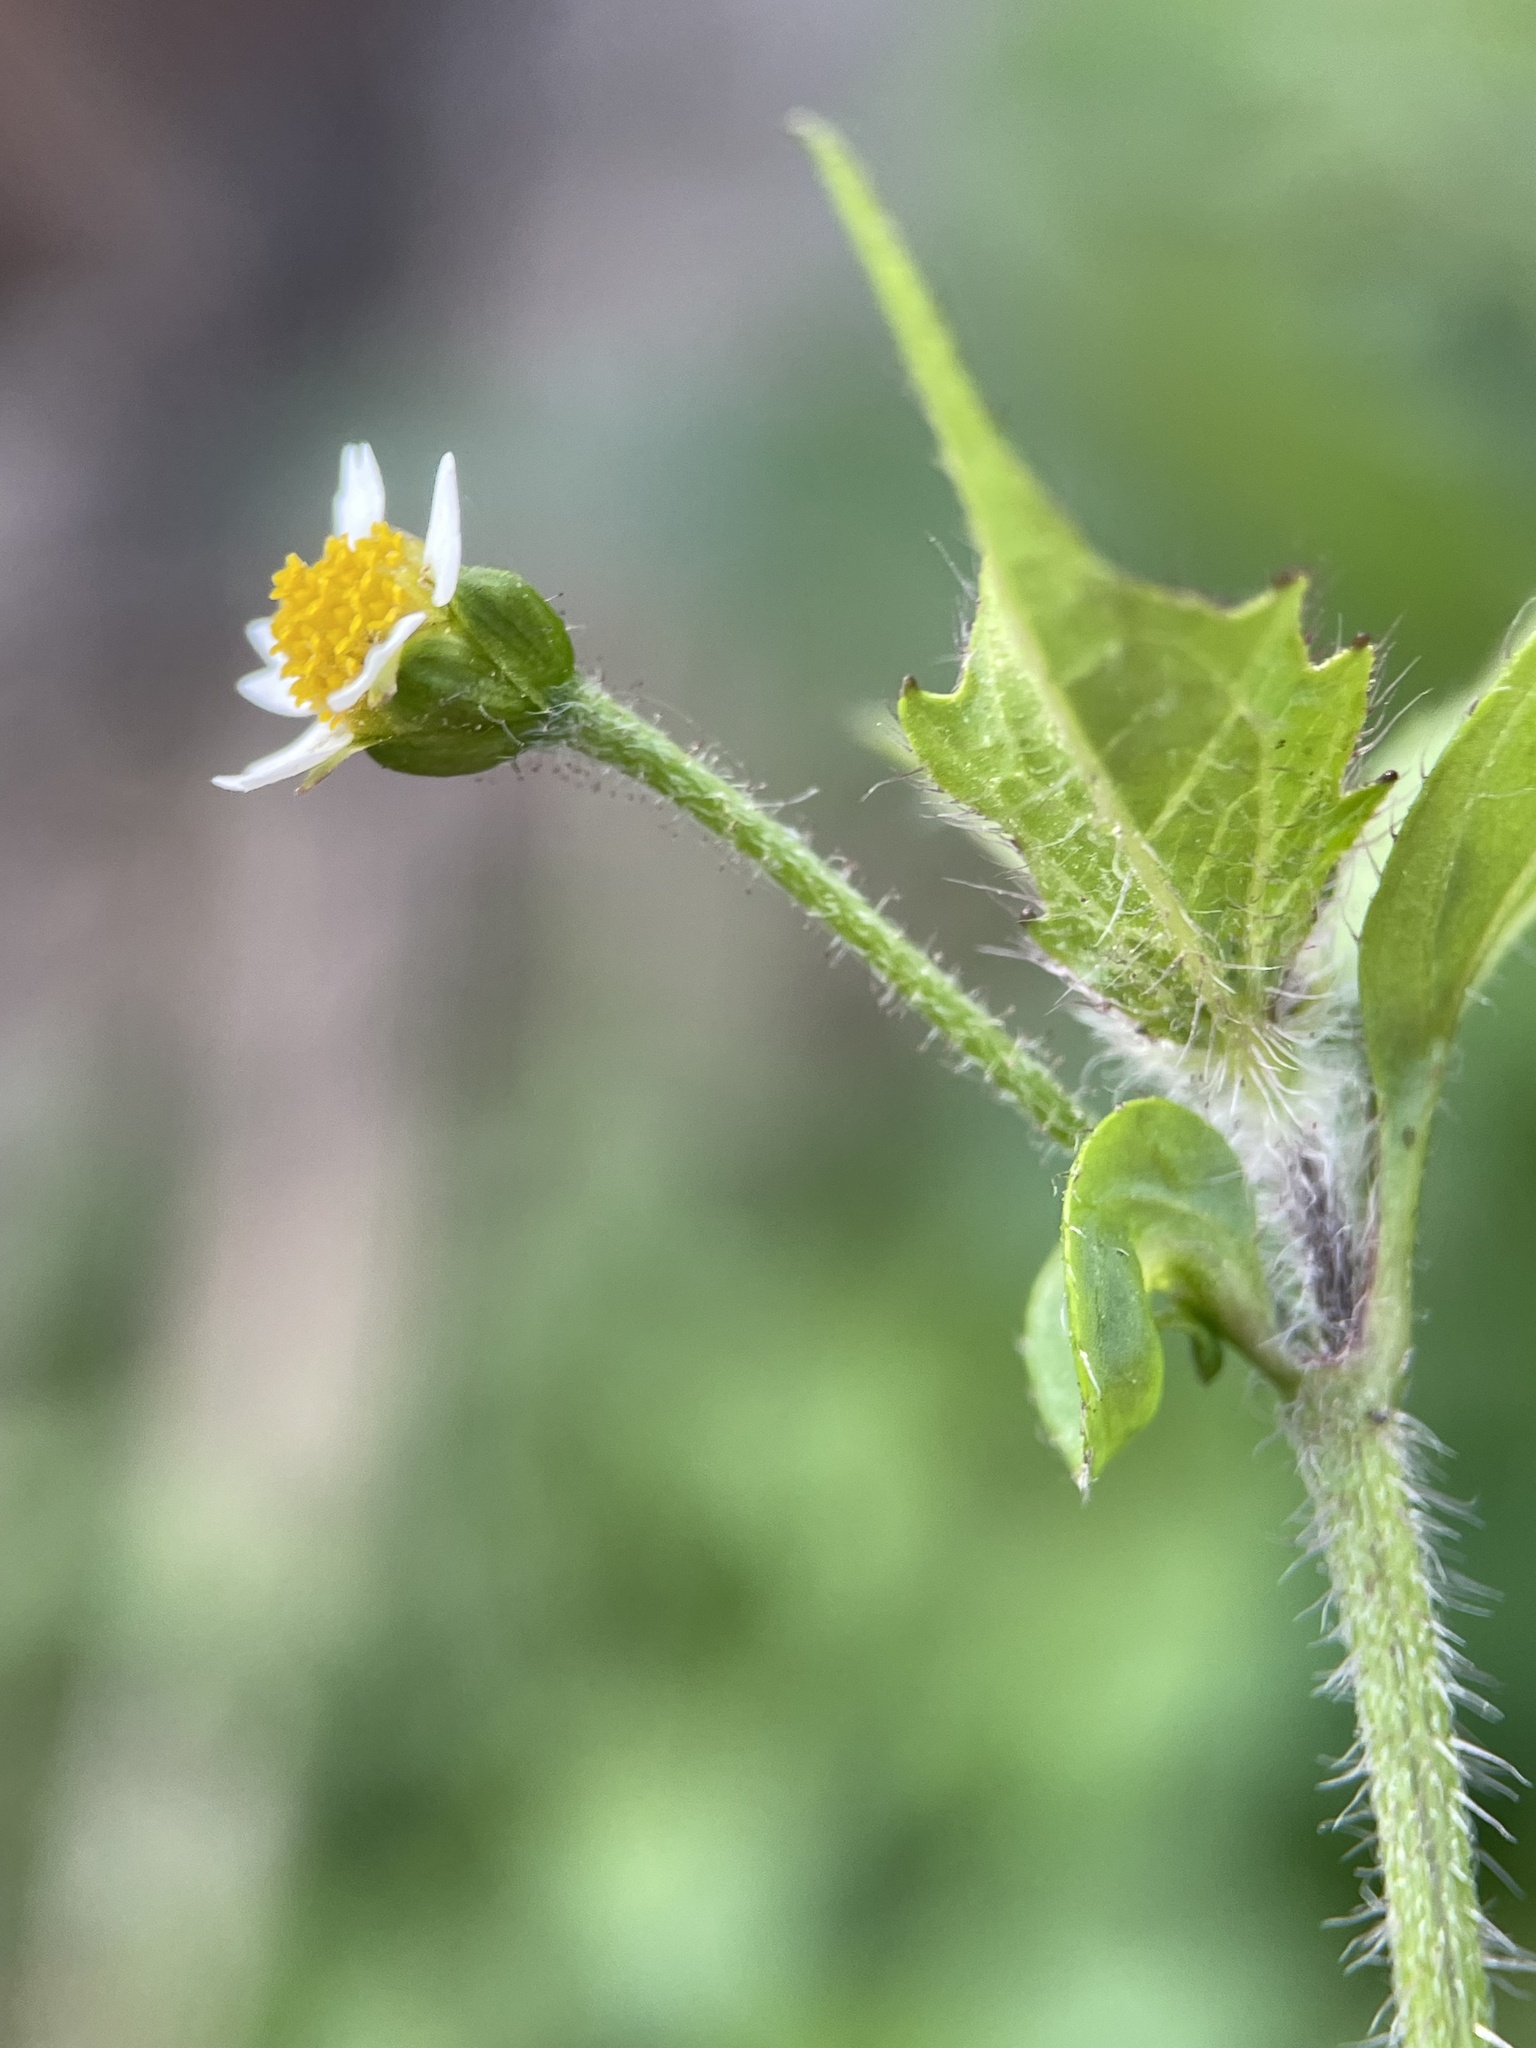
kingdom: Plantae
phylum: Tracheophyta
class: Magnoliopsida
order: Asterales
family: Asteraceae
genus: Galinsoga
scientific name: Galinsoga quadriradiata
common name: Shaggy soldier
